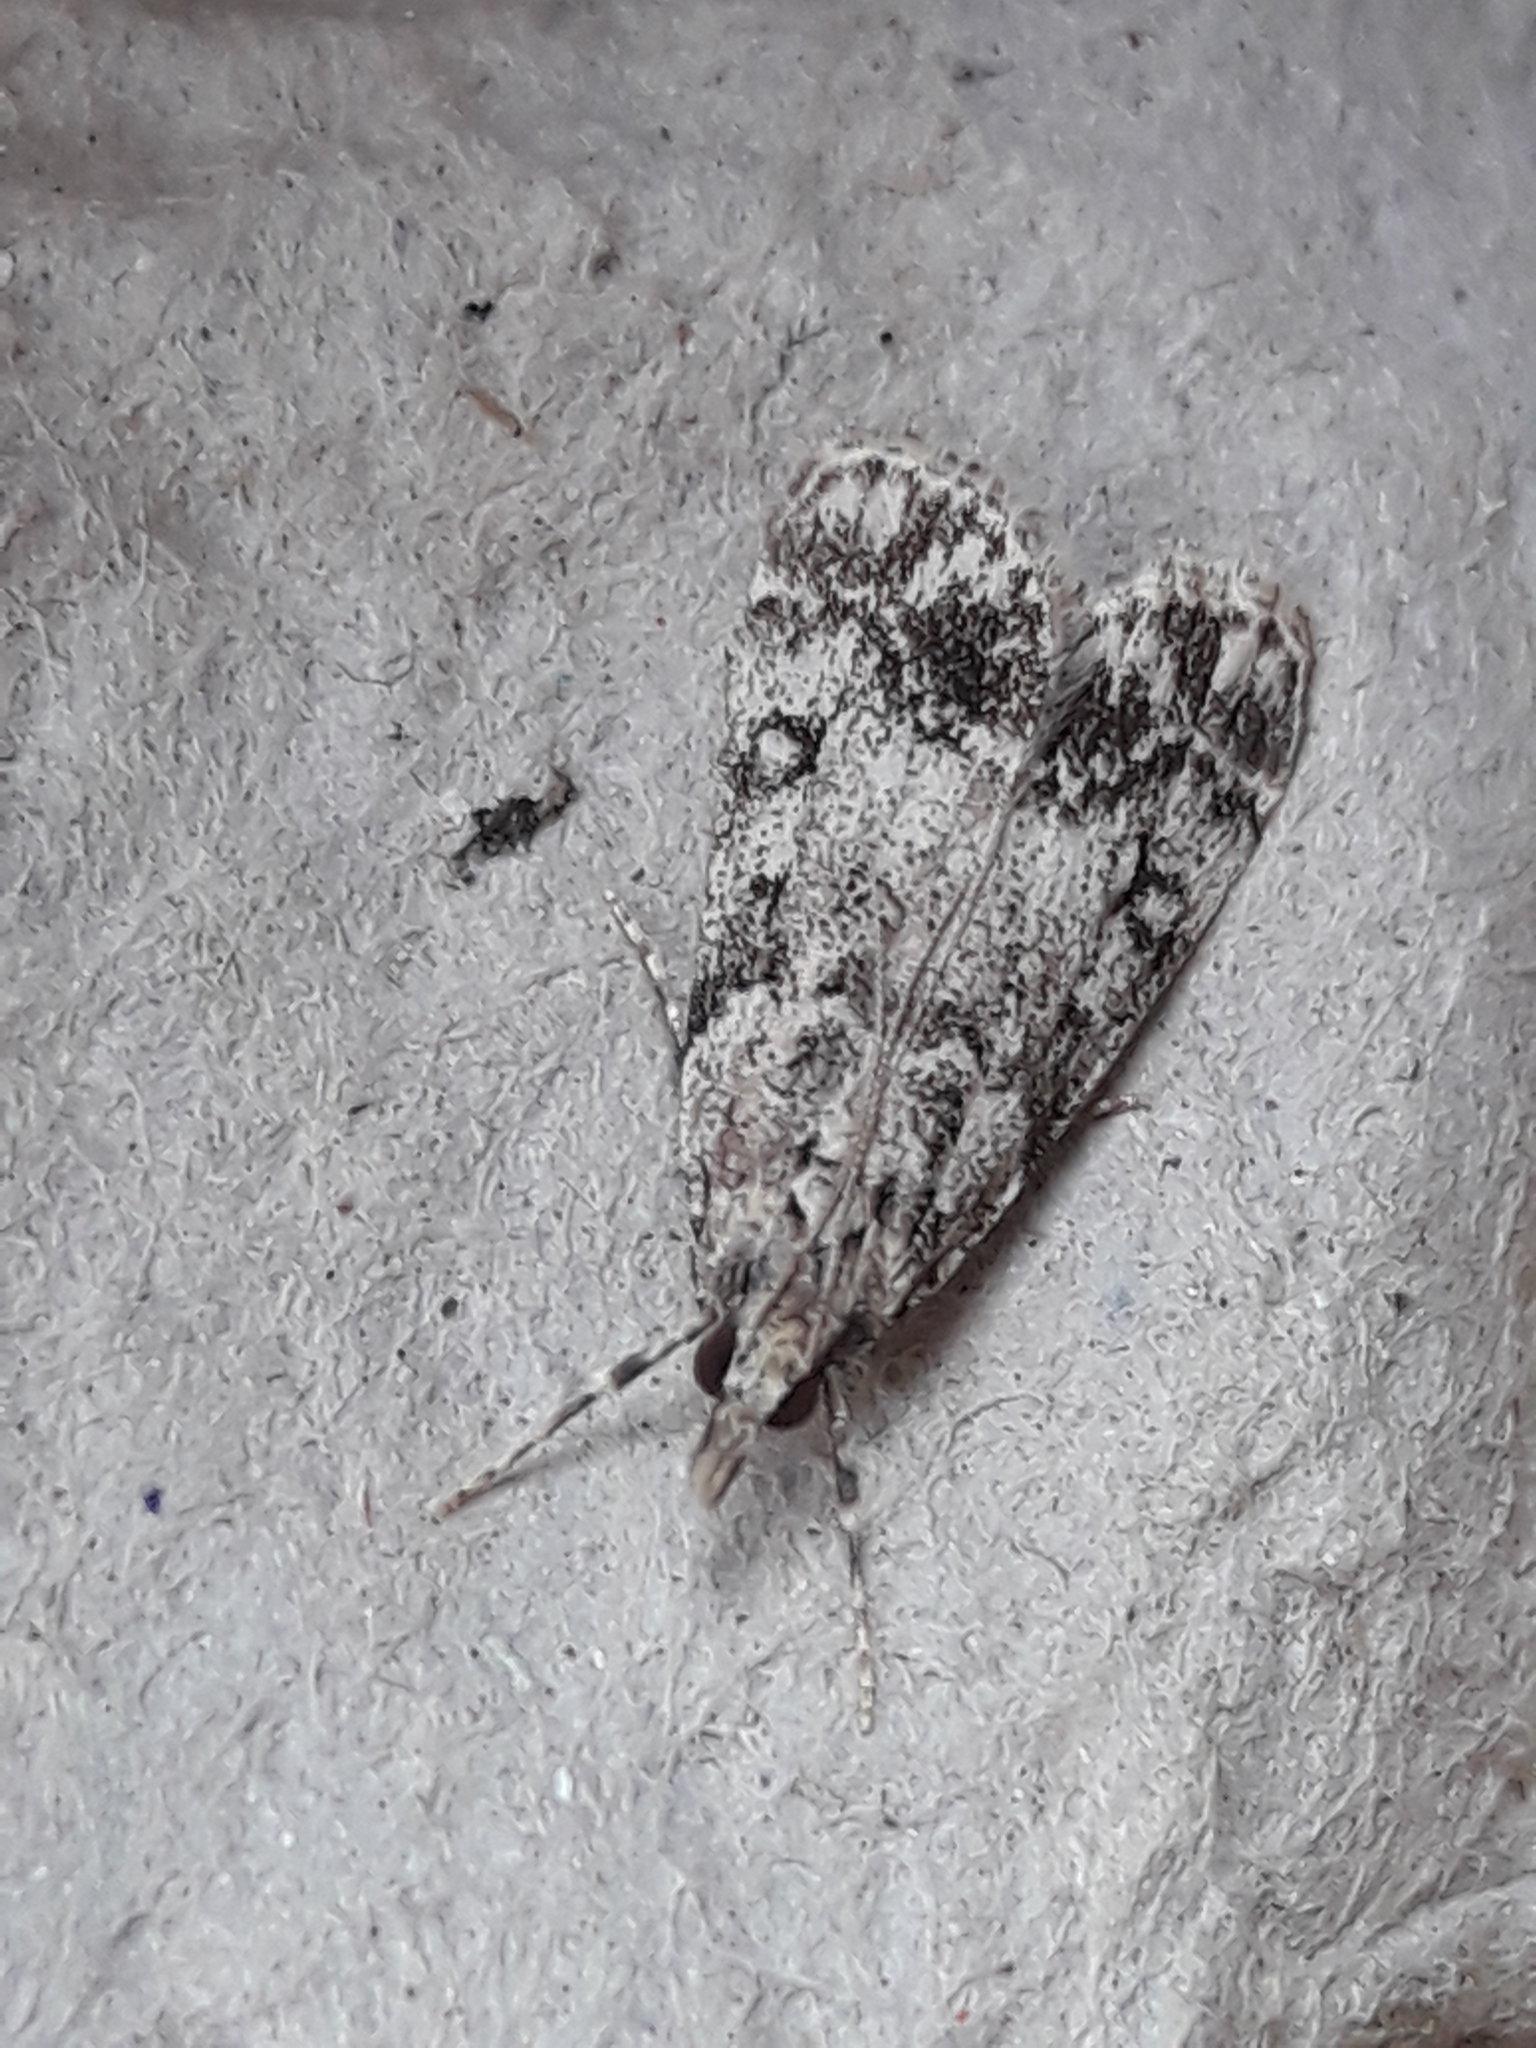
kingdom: Animalia
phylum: Arthropoda
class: Insecta
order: Lepidoptera
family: Crambidae
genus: Eudonia
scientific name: Eudonia lacustrata
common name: Little grey
